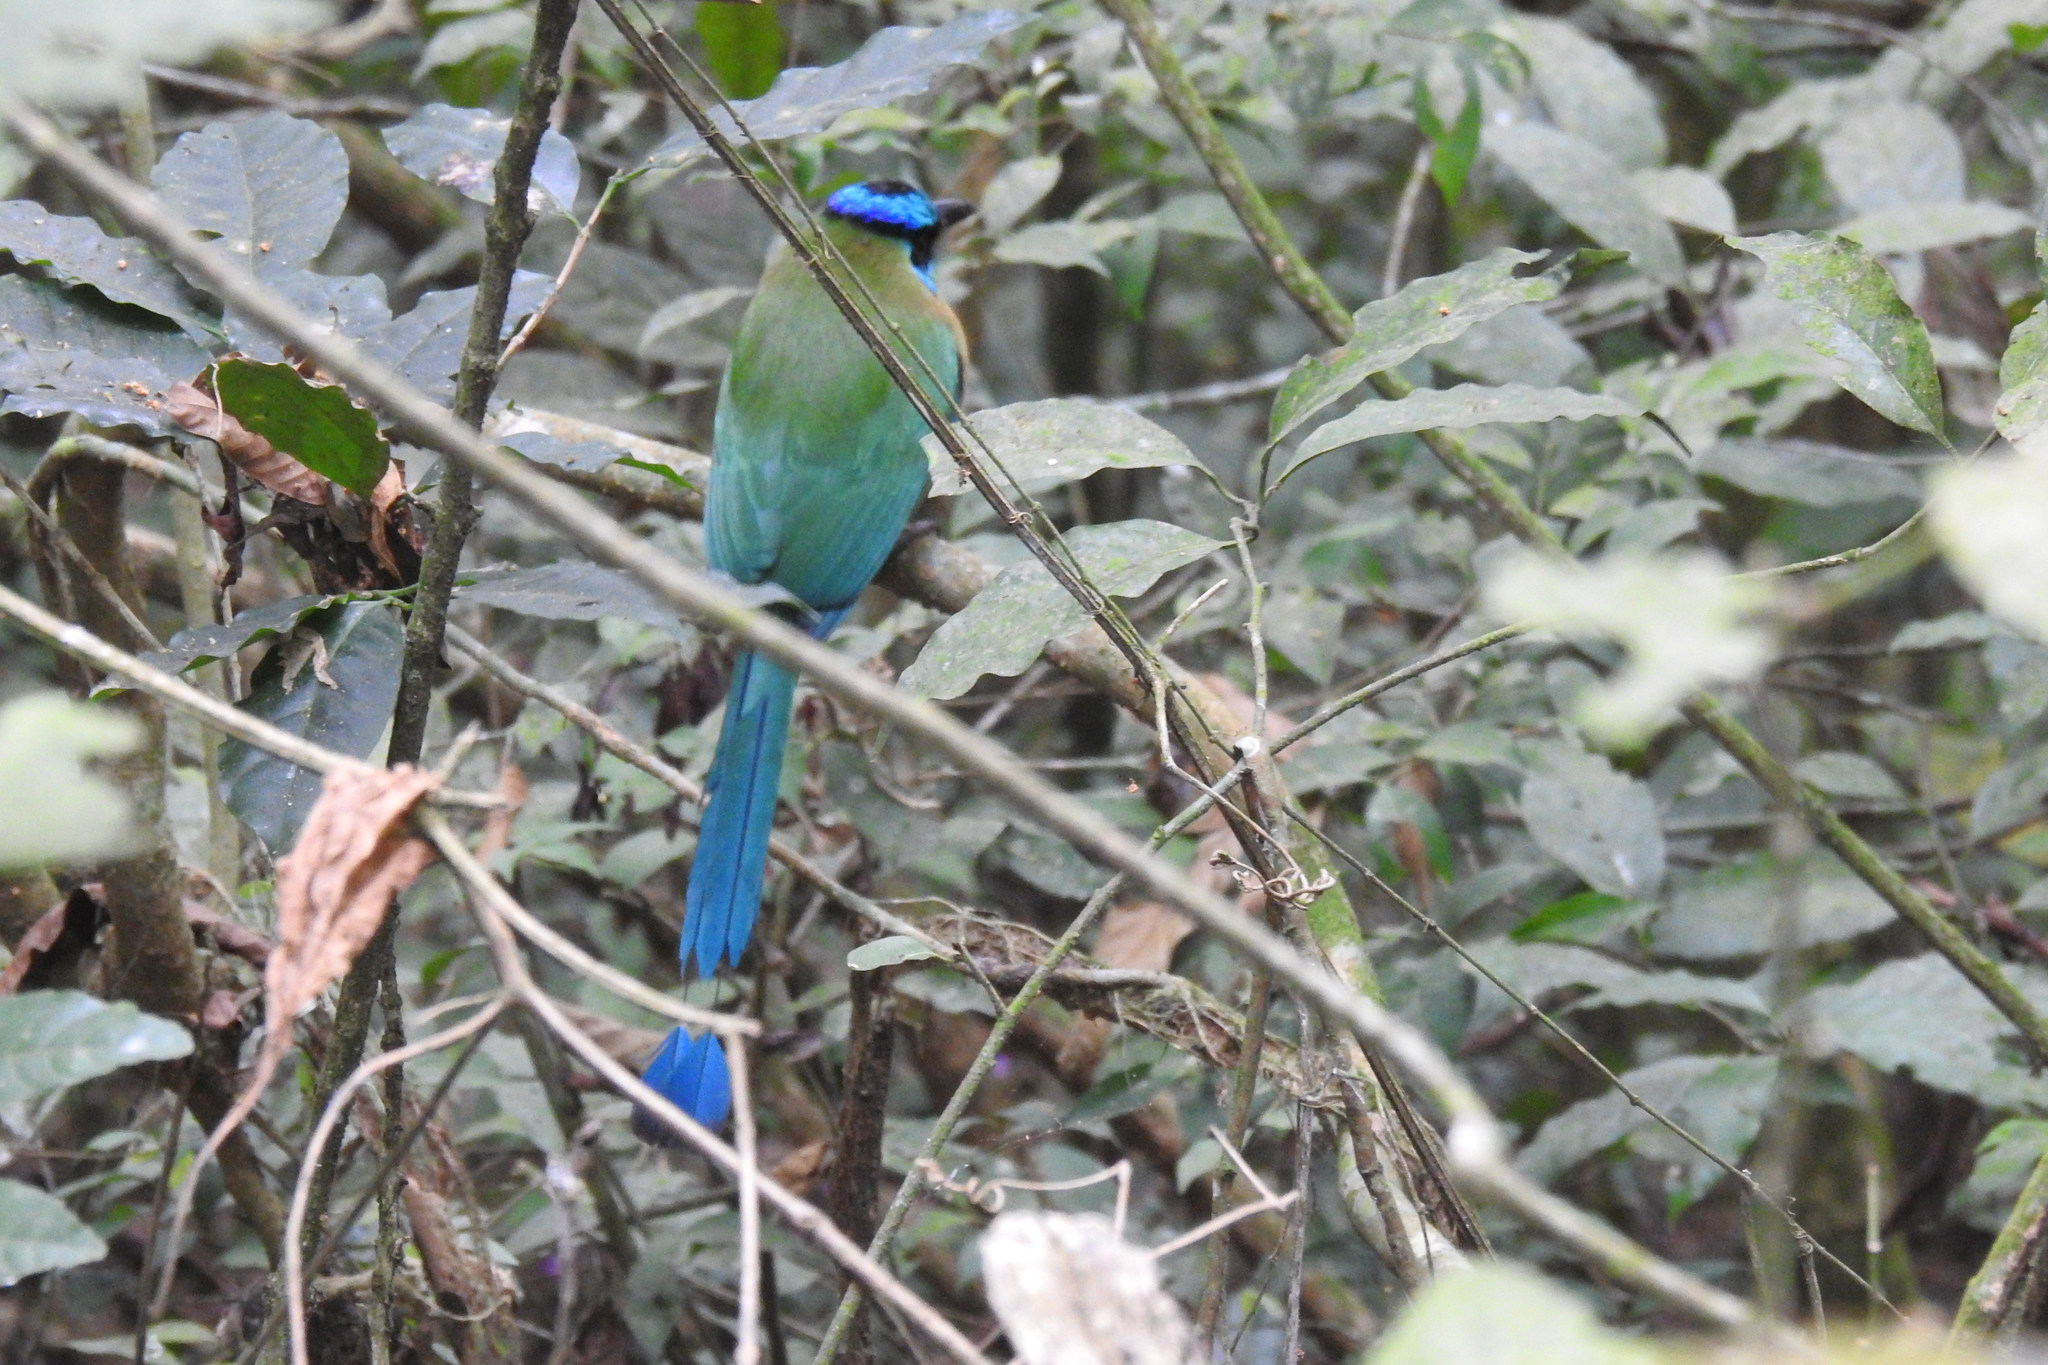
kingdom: Animalia
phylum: Chordata
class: Aves
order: Coraciiformes
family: Momotidae
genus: Momotus
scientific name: Momotus lessonii
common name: Lesson's motmot
